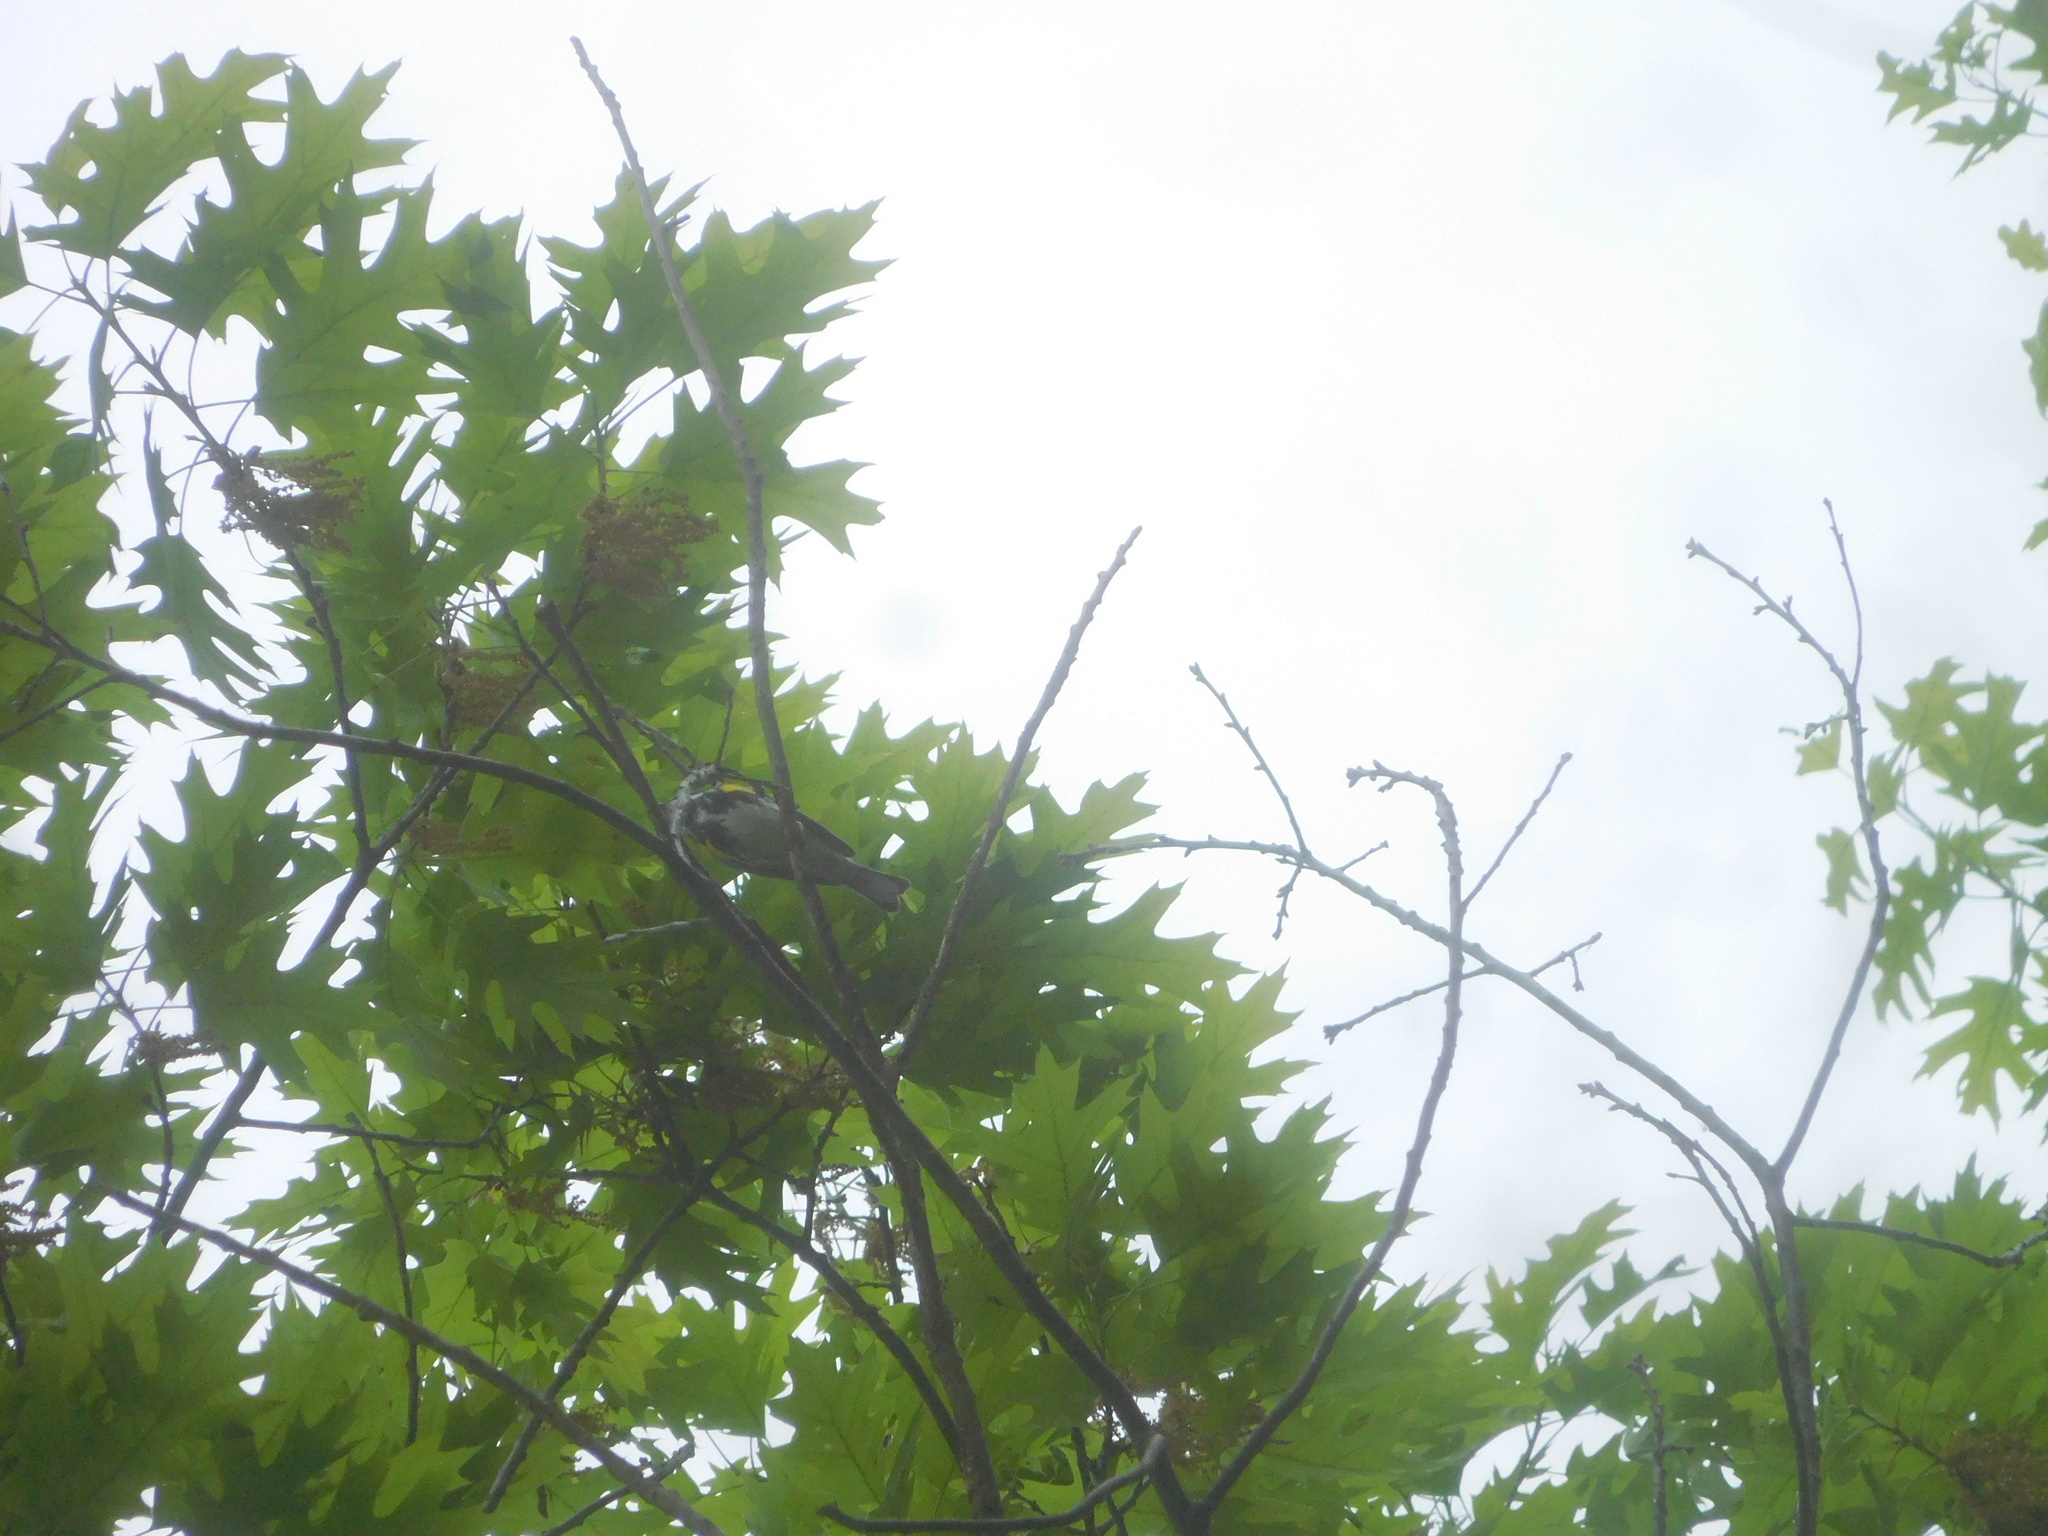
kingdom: Animalia
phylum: Chordata
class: Aves
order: Passeriformes
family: Parulidae
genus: Setophaga
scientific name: Setophaga coronata
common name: Myrtle warbler
